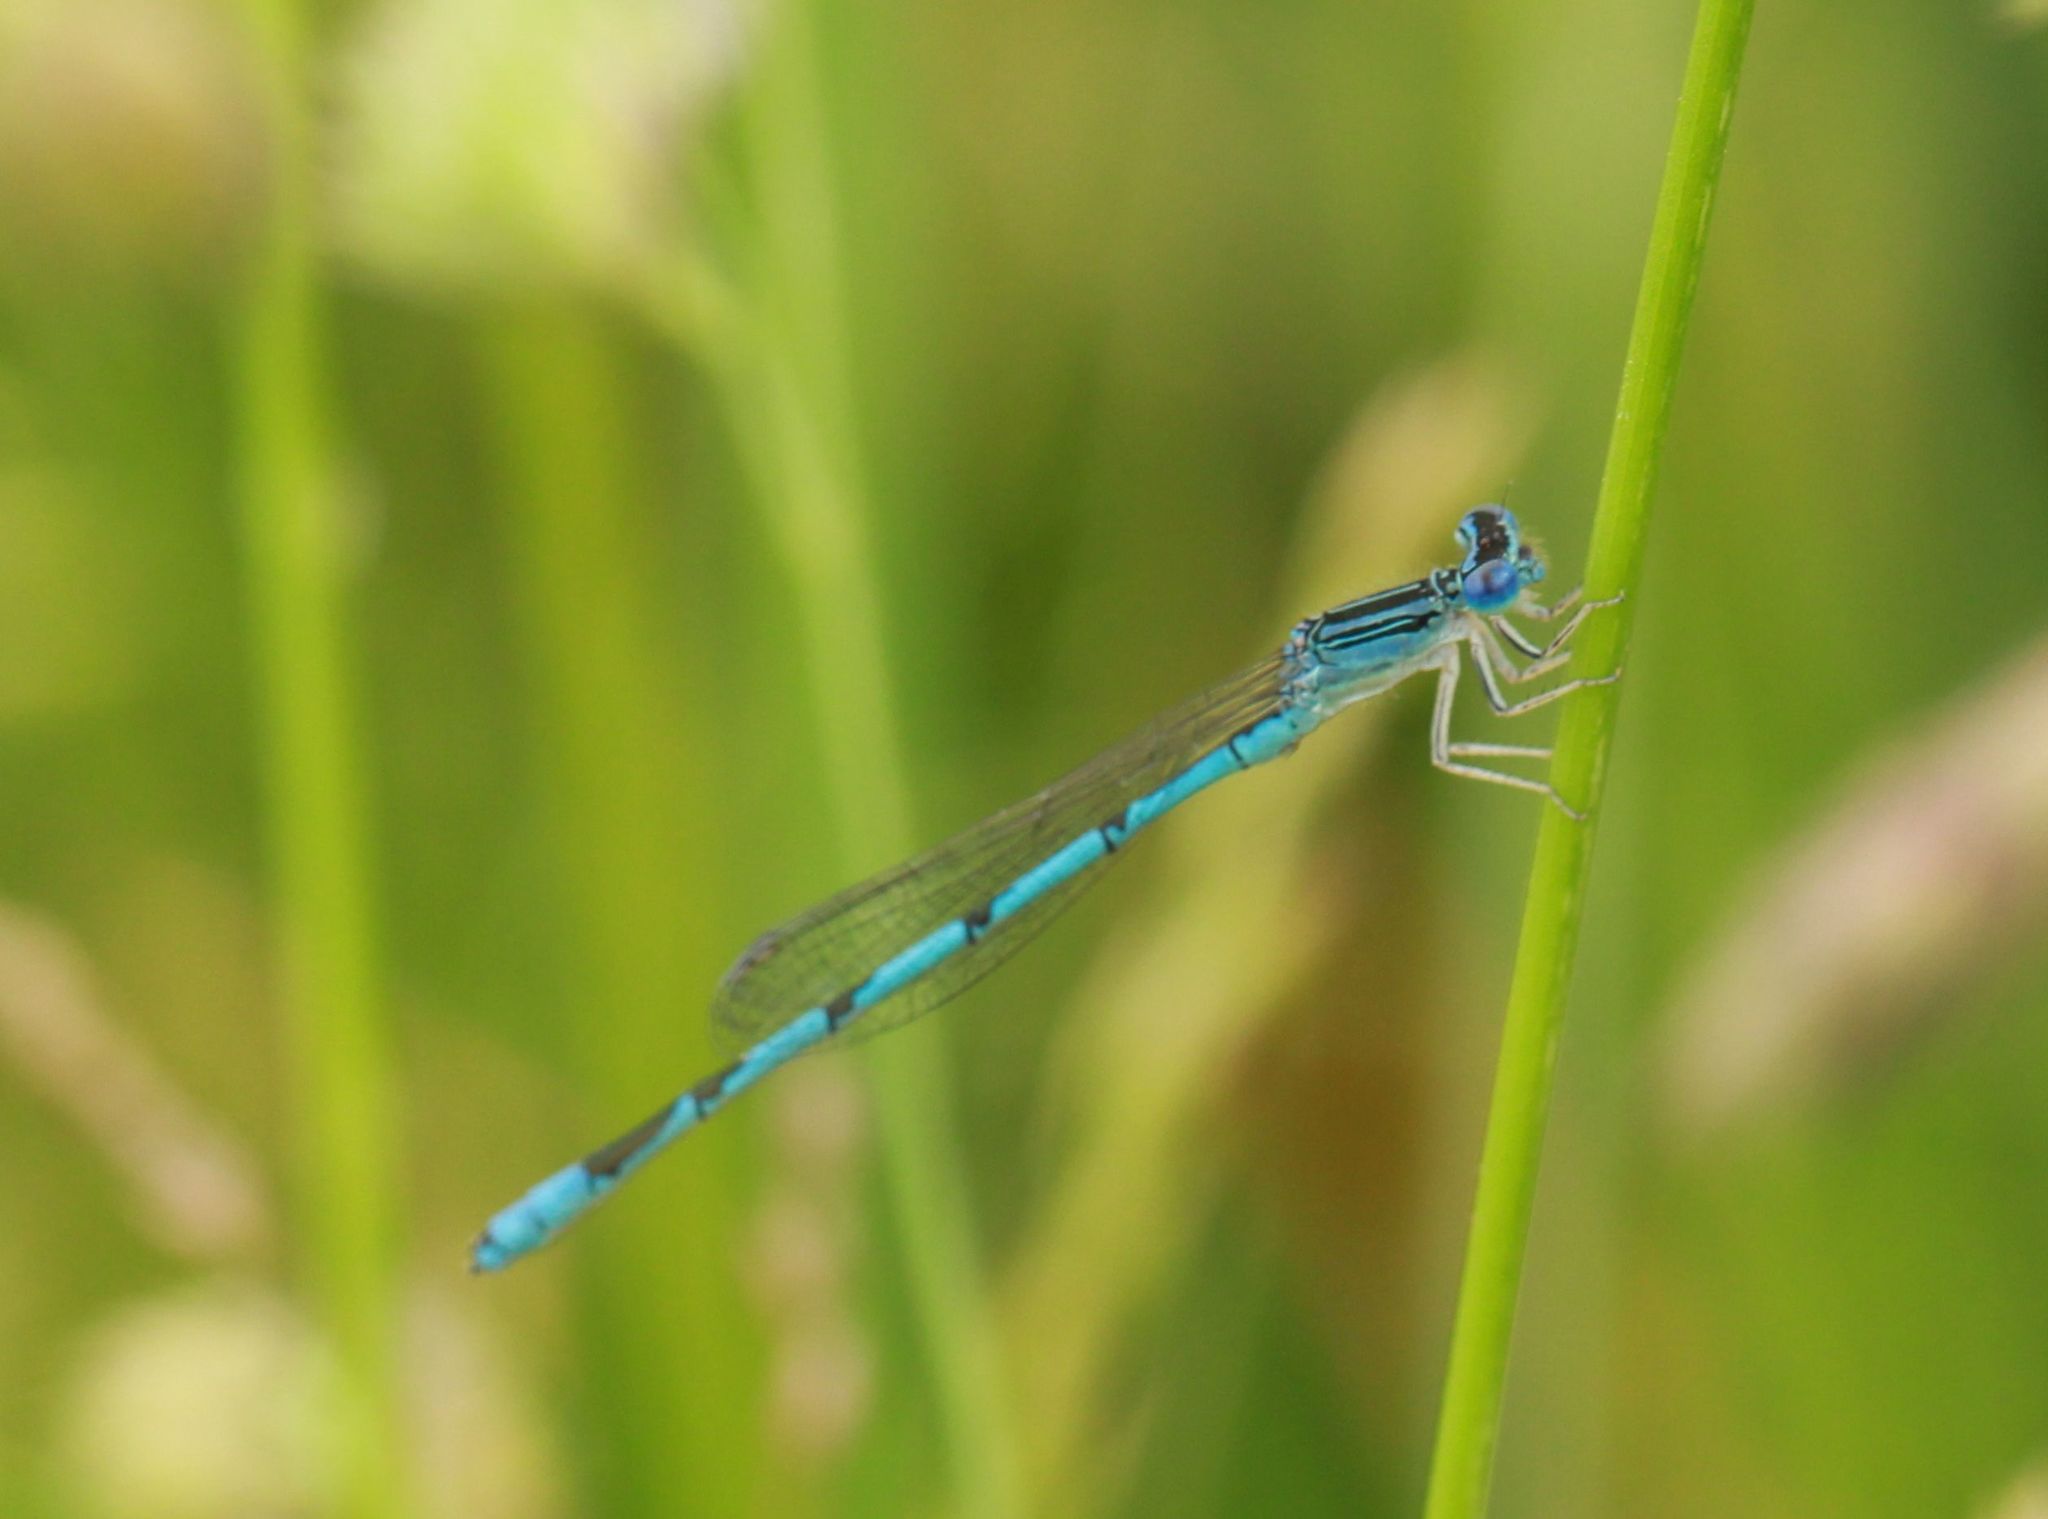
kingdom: Animalia
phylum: Arthropoda
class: Insecta
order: Odonata
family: Coenagrionidae
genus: Enallagma
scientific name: Enallagma basidens
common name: Double-striped bluet
